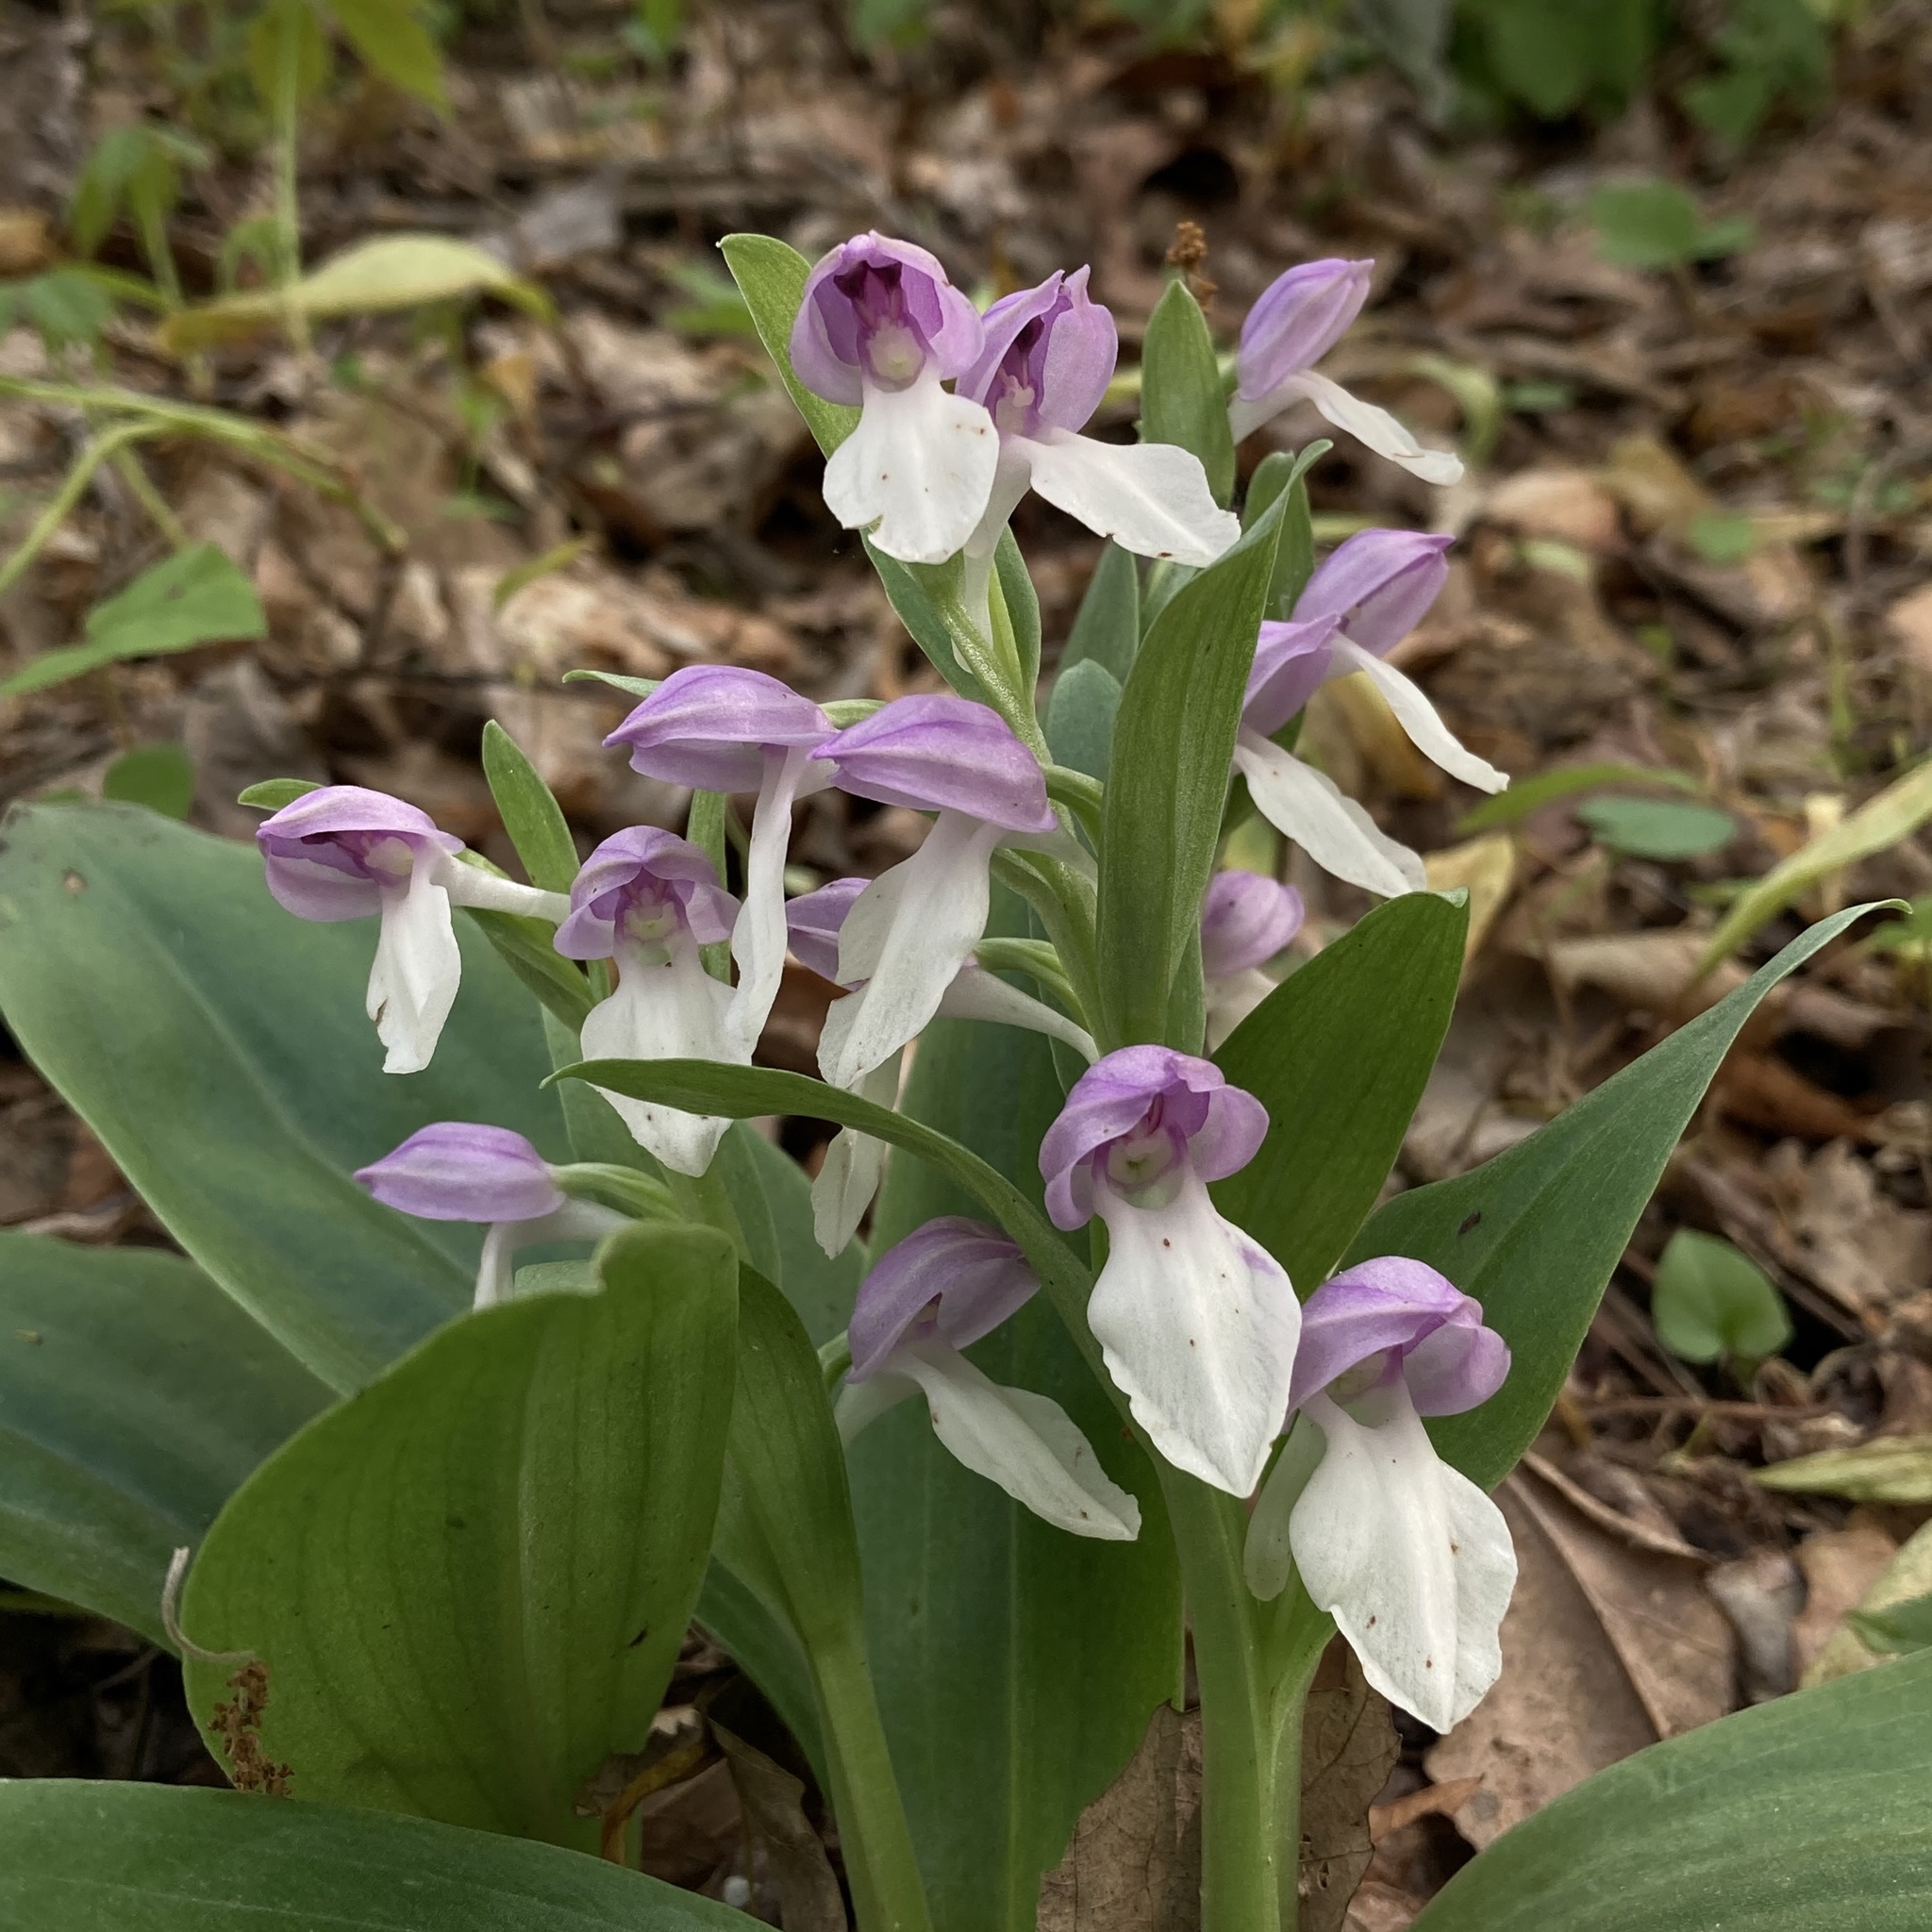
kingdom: Plantae
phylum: Tracheophyta
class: Liliopsida
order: Asparagales
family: Orchidaceae
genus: Galearis
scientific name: Galearis spectabilis
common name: Purple-hooded orchis
